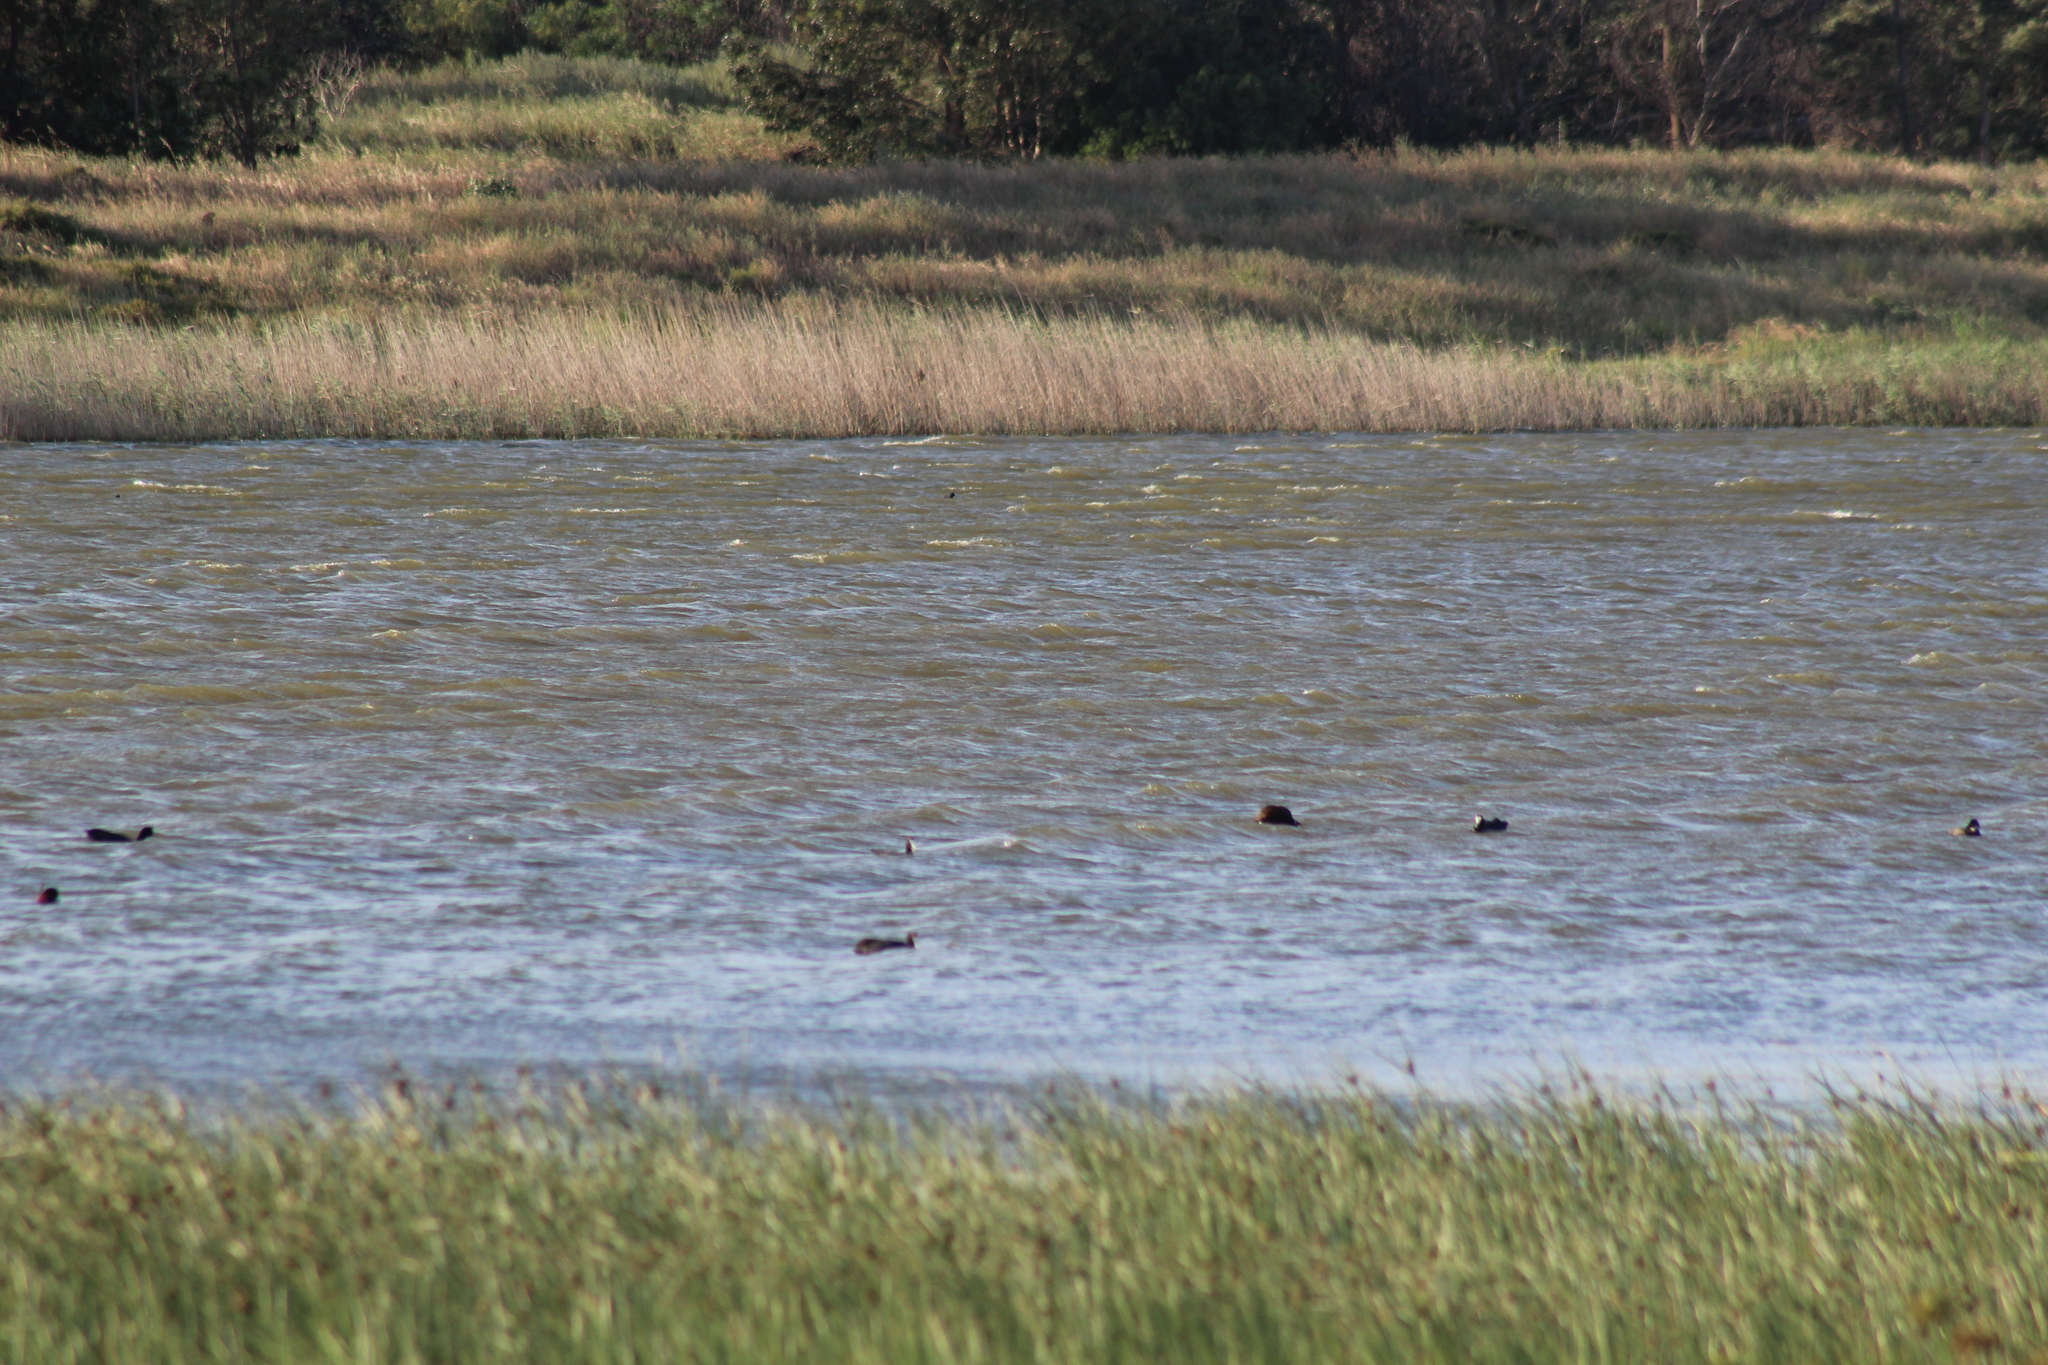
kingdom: Animalia
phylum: Chordata
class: Aves
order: Gruiformes
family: Rallidae
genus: Fulica
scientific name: Fulica cristata
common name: Red-knobbed coot
